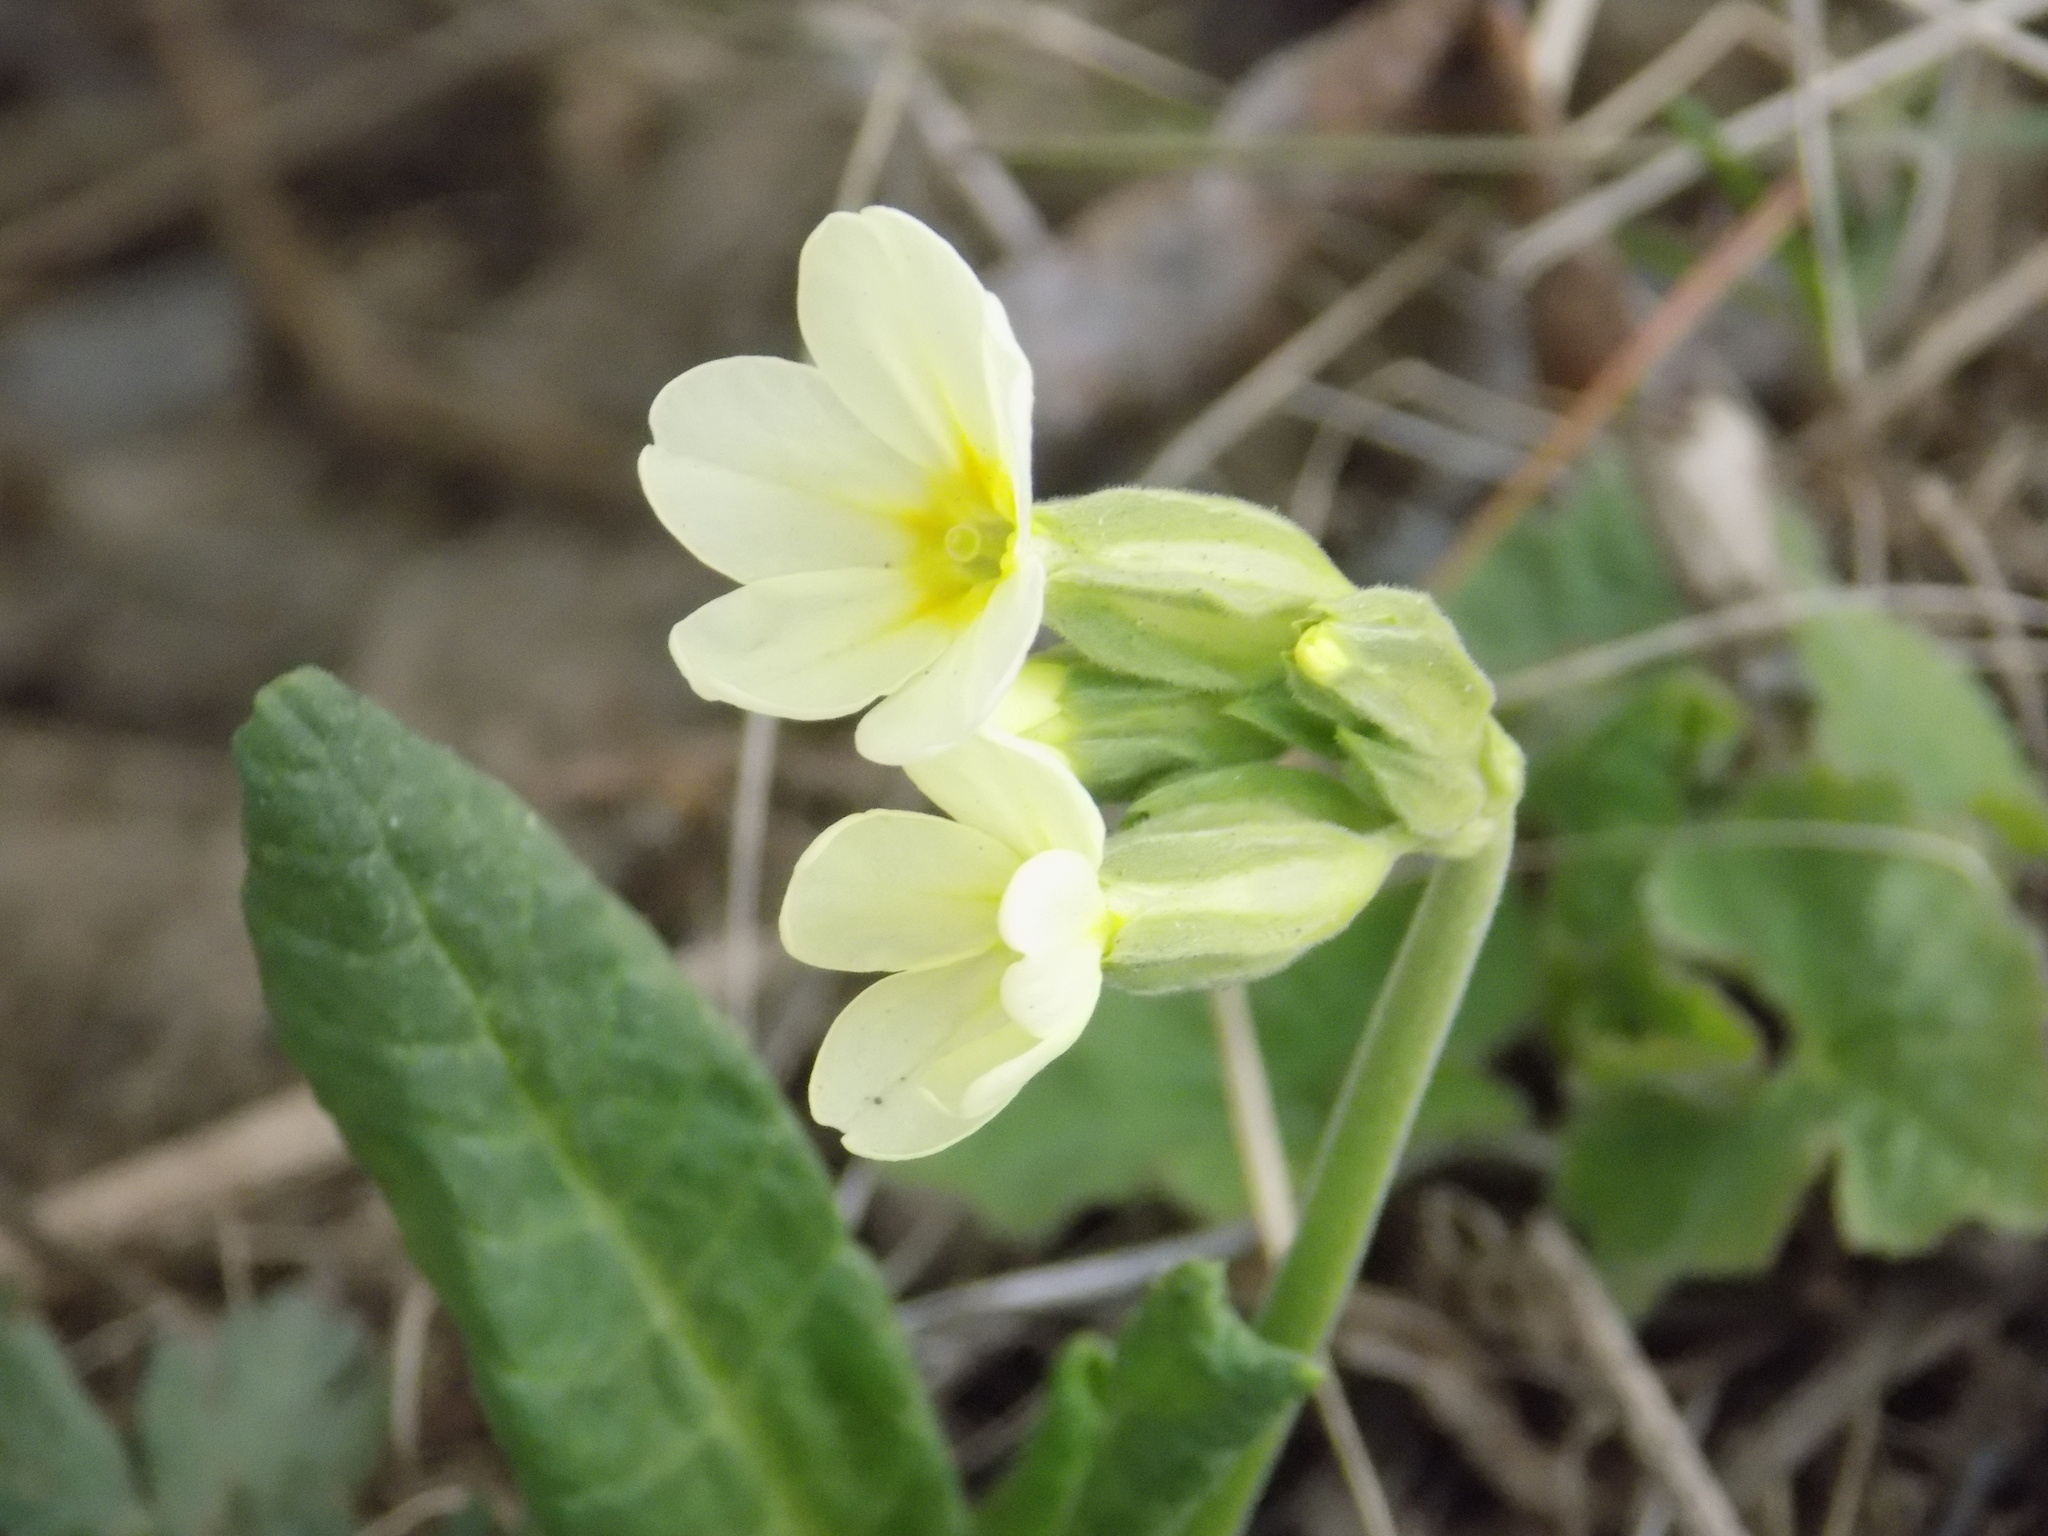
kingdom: Plantae
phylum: Tracheophyta
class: Magnoliopsida
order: Ericales
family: Primulaceae
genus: Primula
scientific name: Primula elatior
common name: Oxlip
